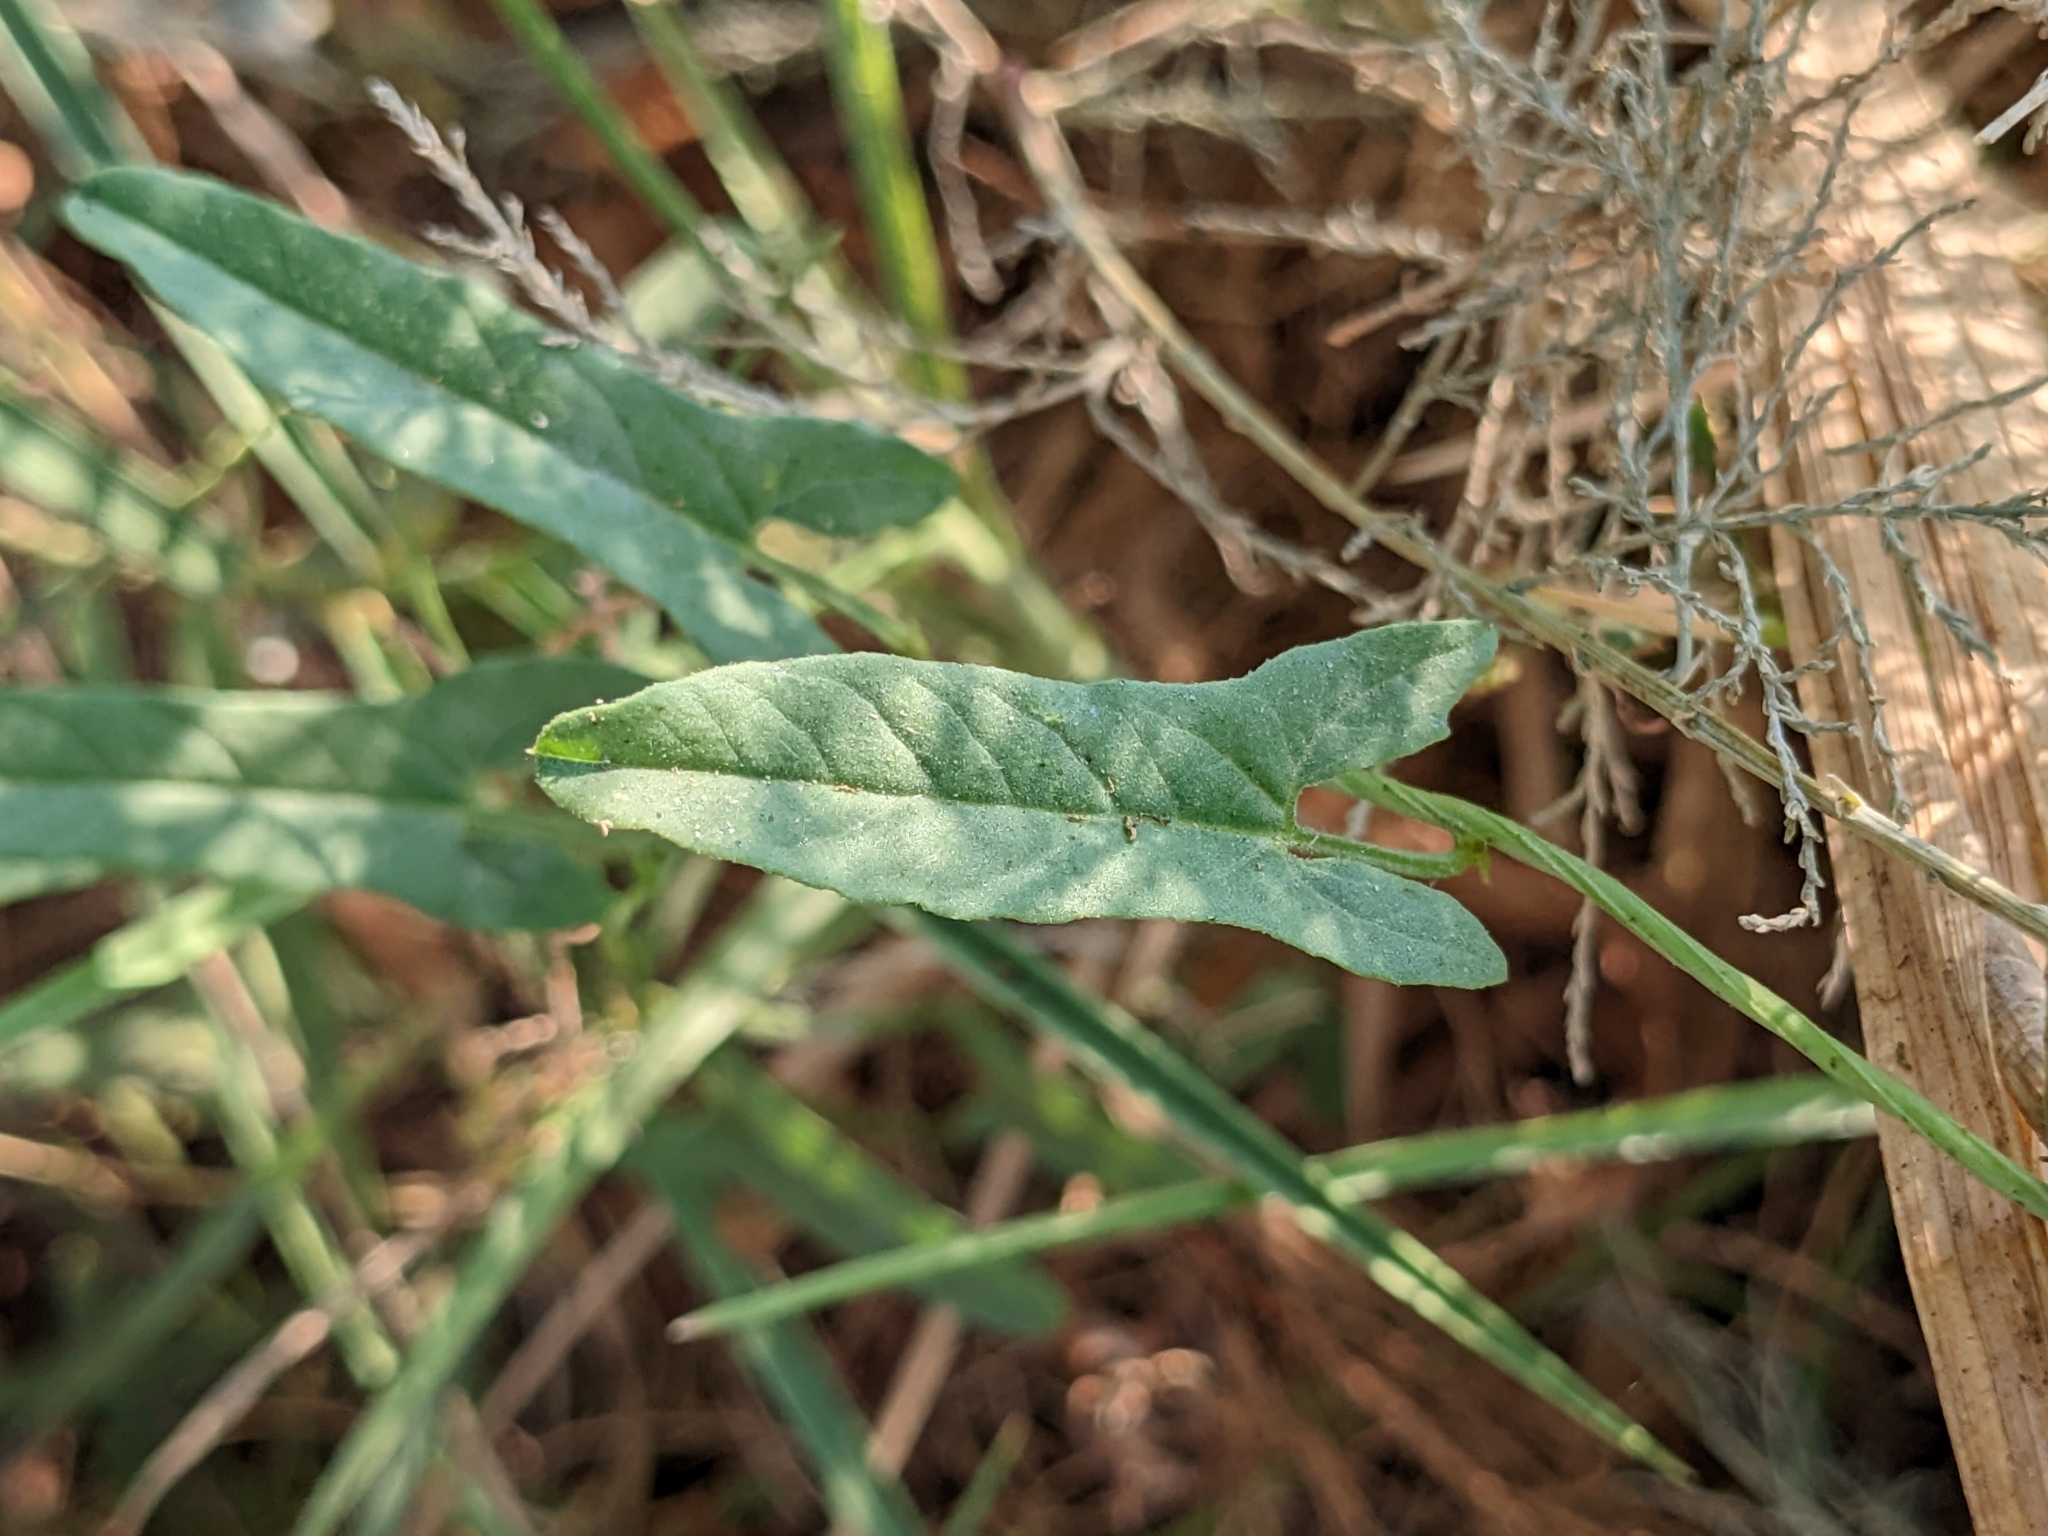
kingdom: Plantae
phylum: Tracheophyta
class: Magnoliopsida
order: Solanales
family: Convolvulaceae
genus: Convolvulus
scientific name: Convolvulus arvensis
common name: Field bindweed
